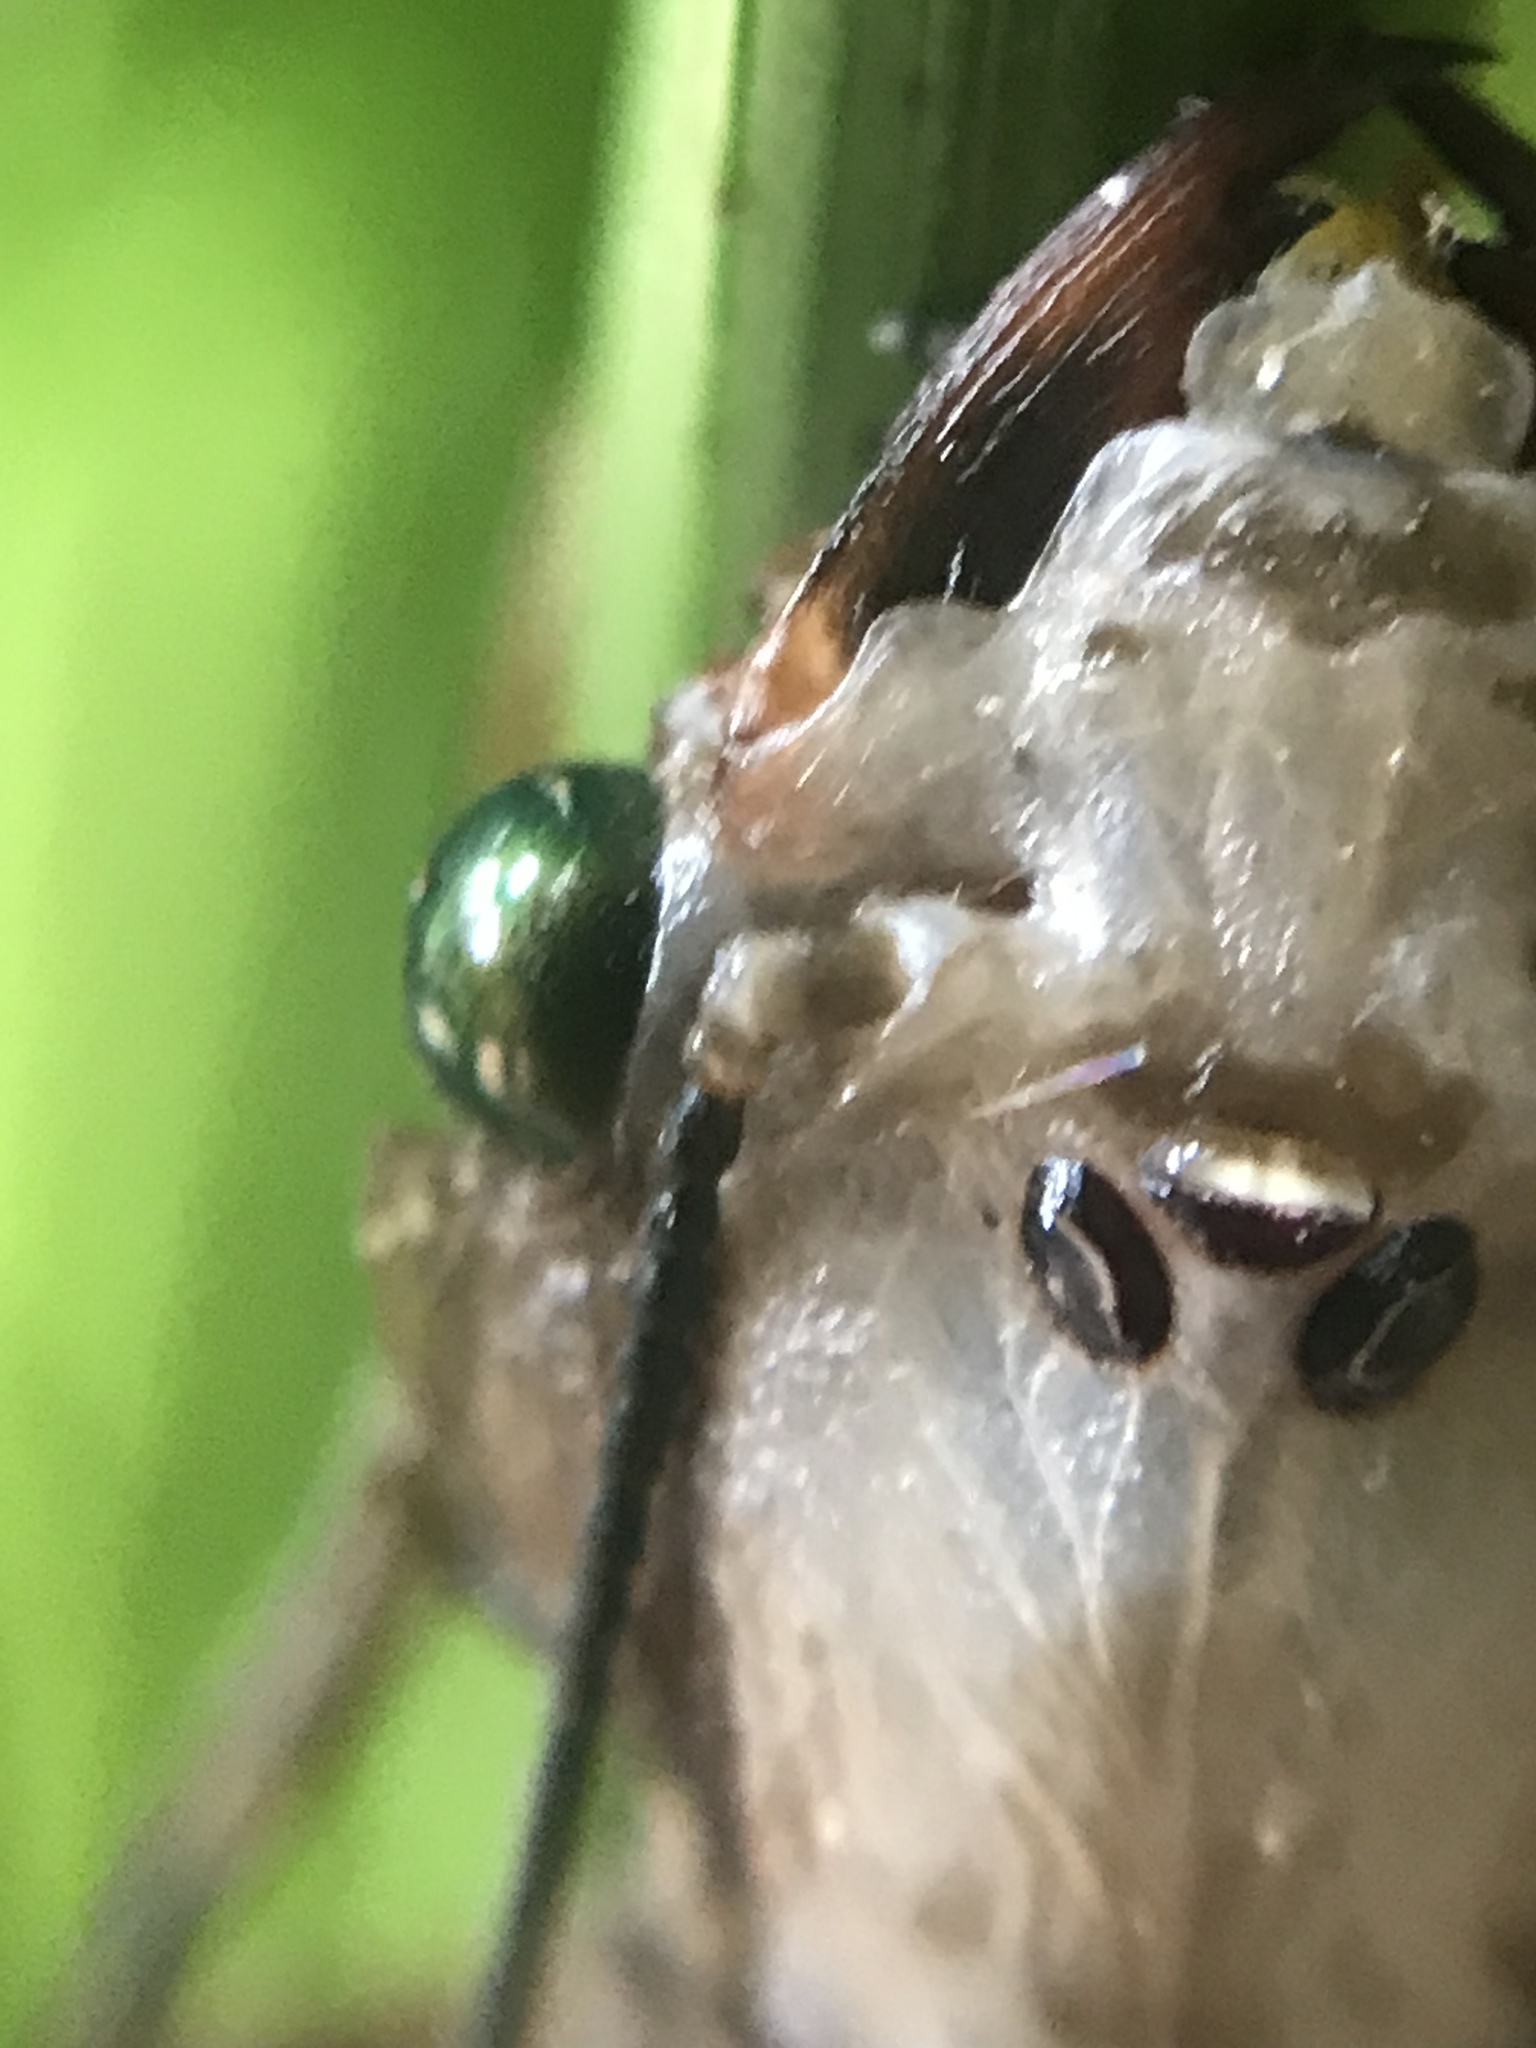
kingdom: Animalia
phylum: Arthropoda
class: Insecta
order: Megaloptera
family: Corydalidae
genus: Platyneuromus
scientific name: Platyneuromus soror
